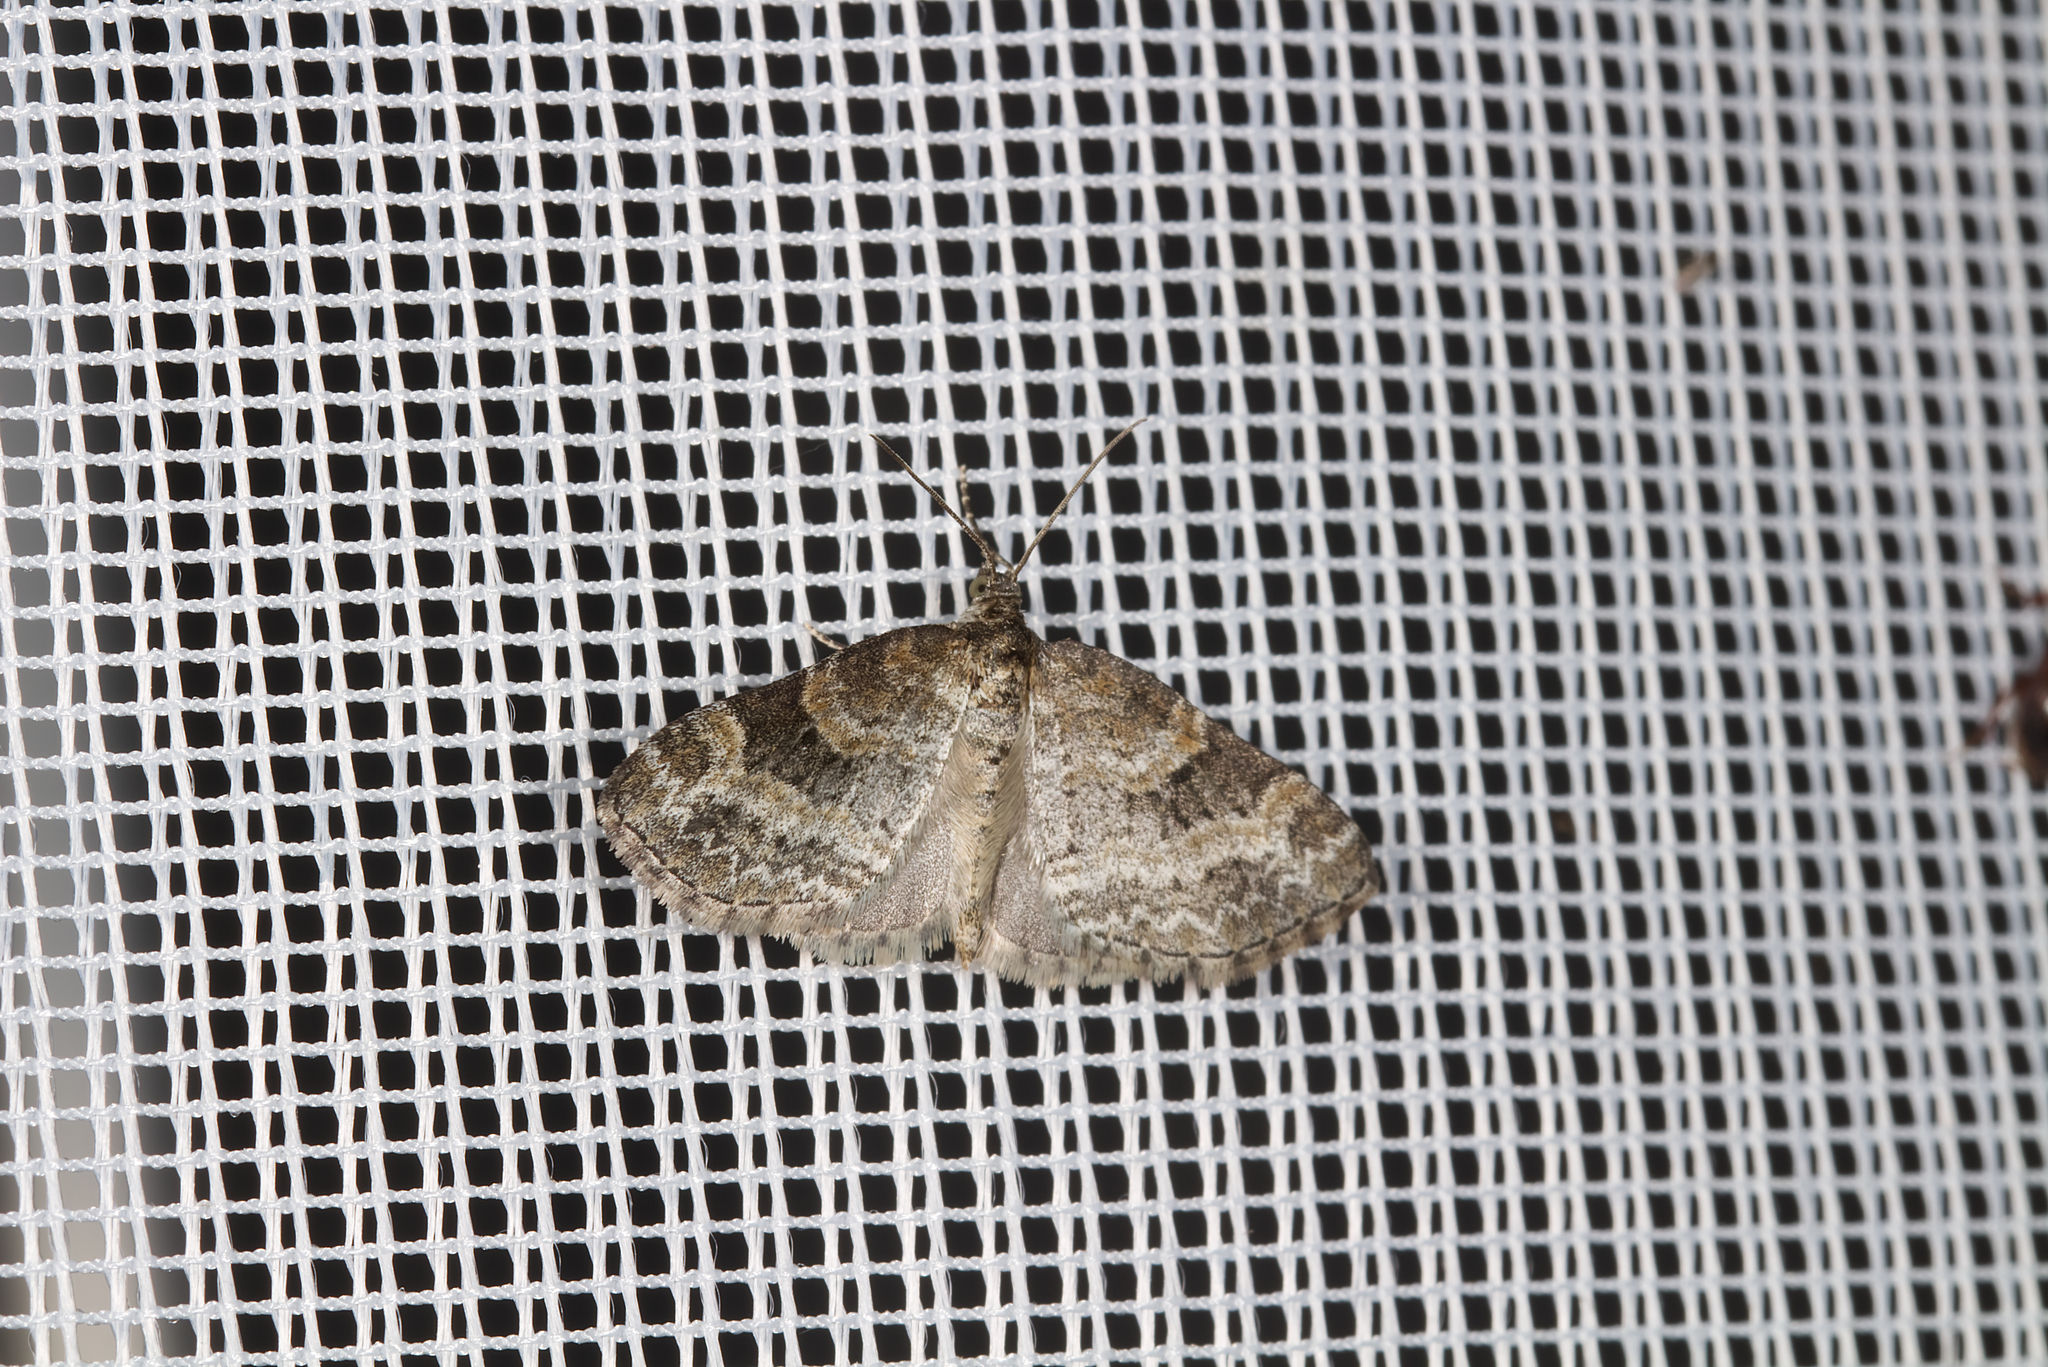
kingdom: Animalia
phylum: Arthropoda
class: Insecta
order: Lepidoptera
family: Geometridae
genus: Pterapherapteryx
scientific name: Pterapherapteryx sexalata
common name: Small seraphim
